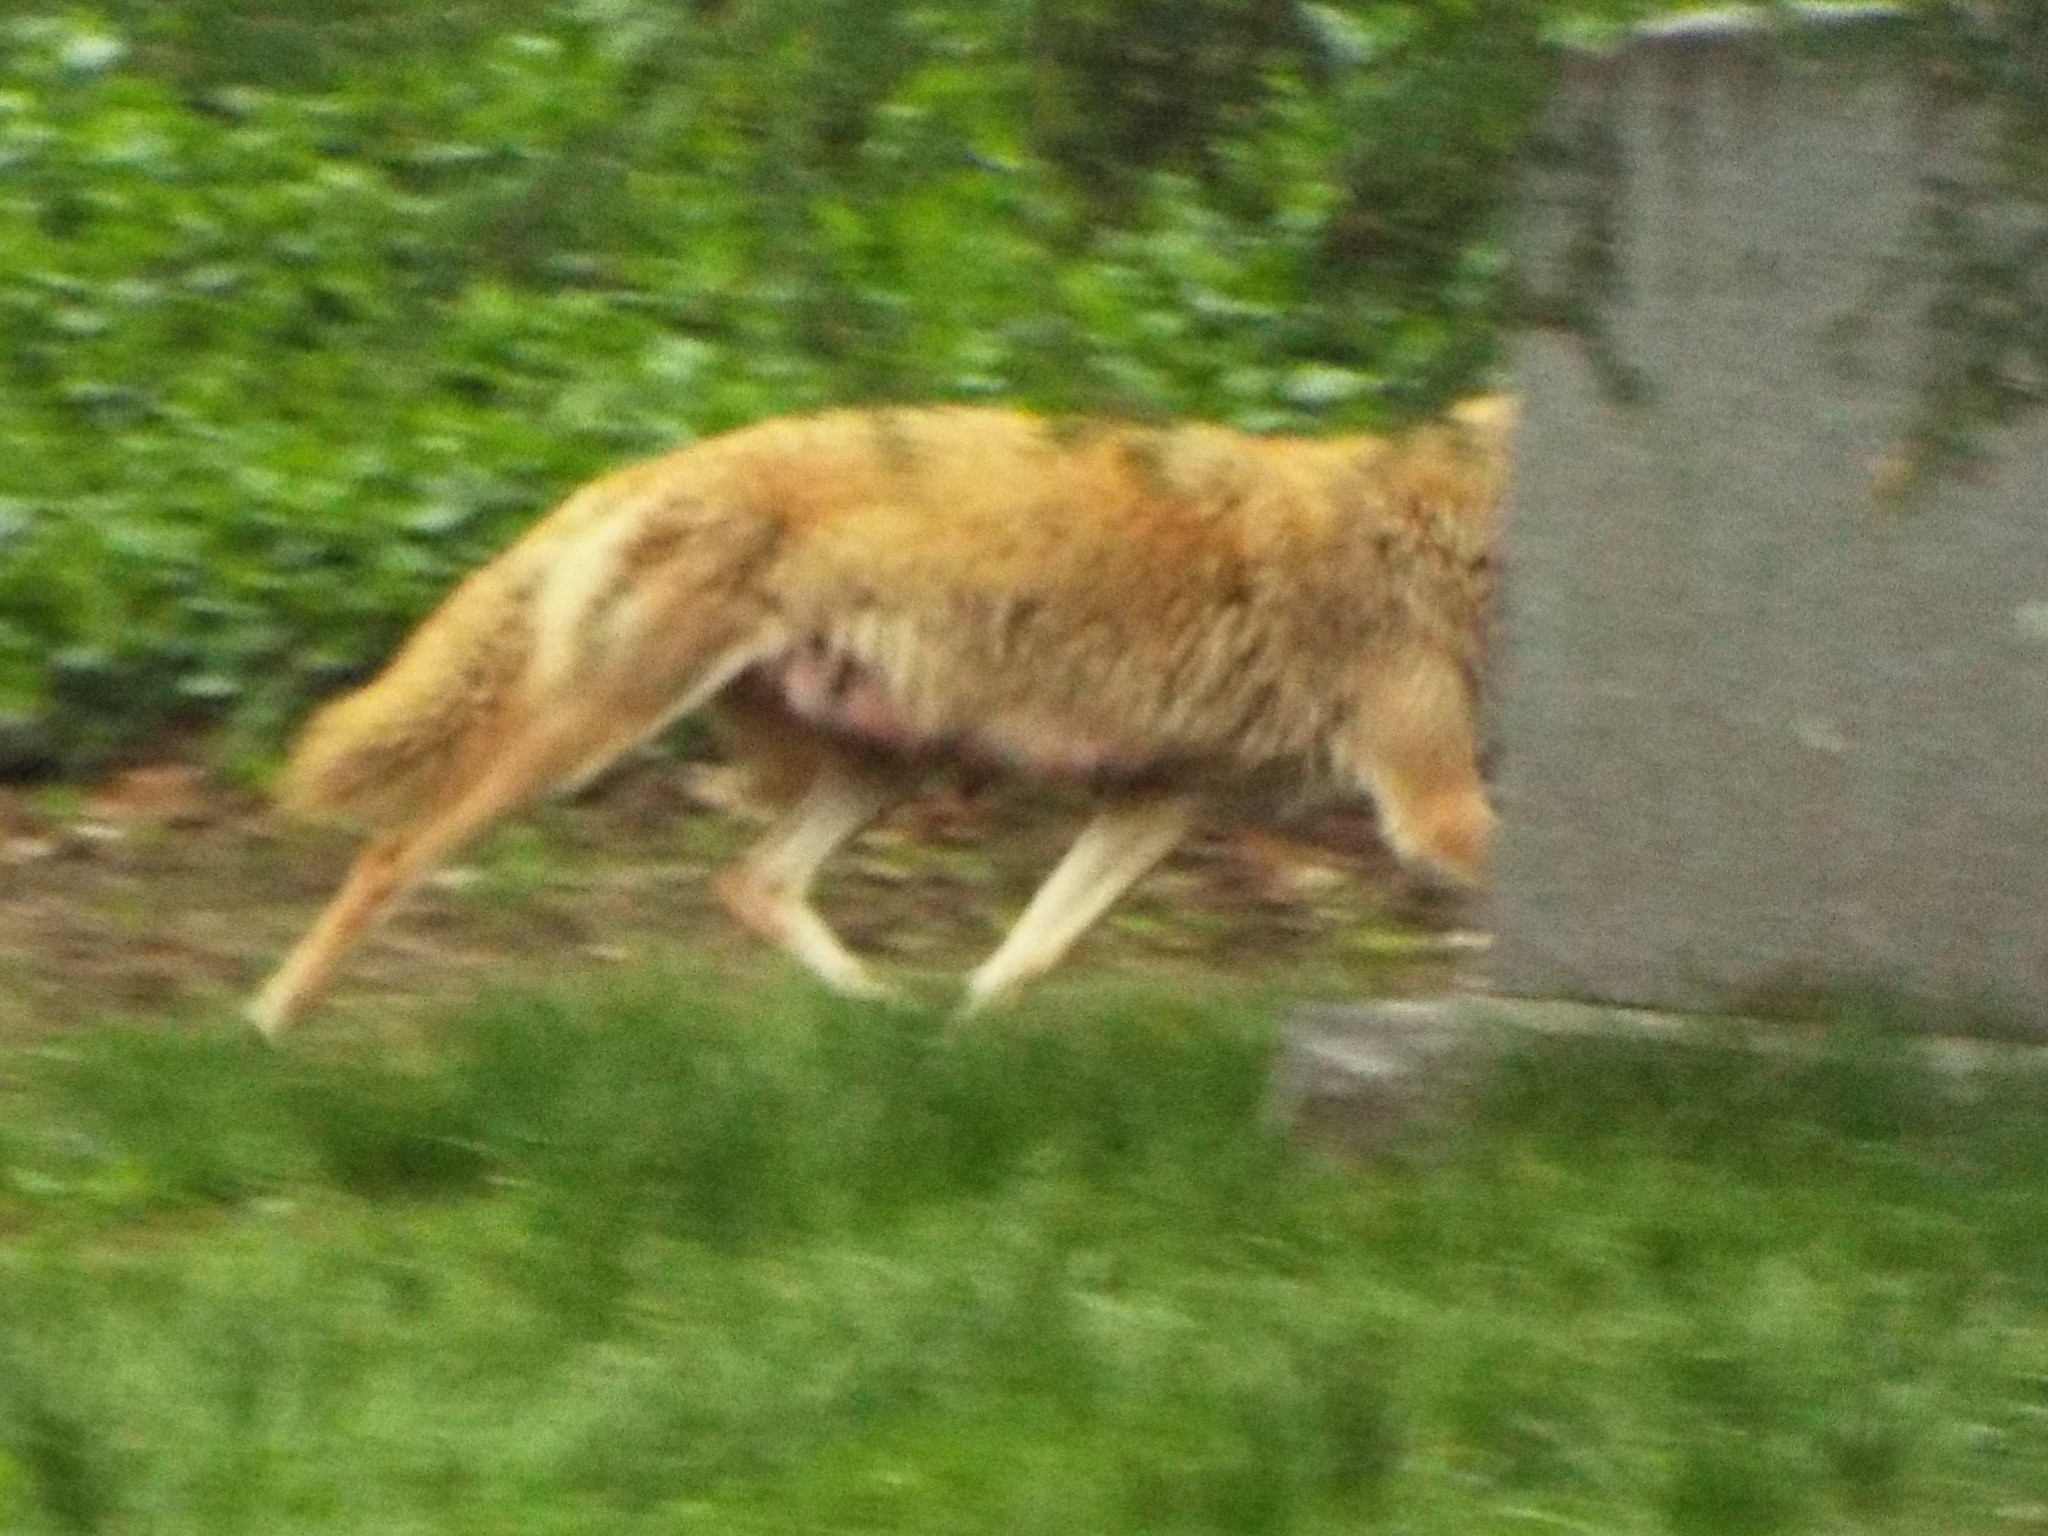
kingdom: Animalia
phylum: Chordata
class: Mammalia
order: Carnivora
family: Canidae
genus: Canis
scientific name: Canis latrans
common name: Coyote
